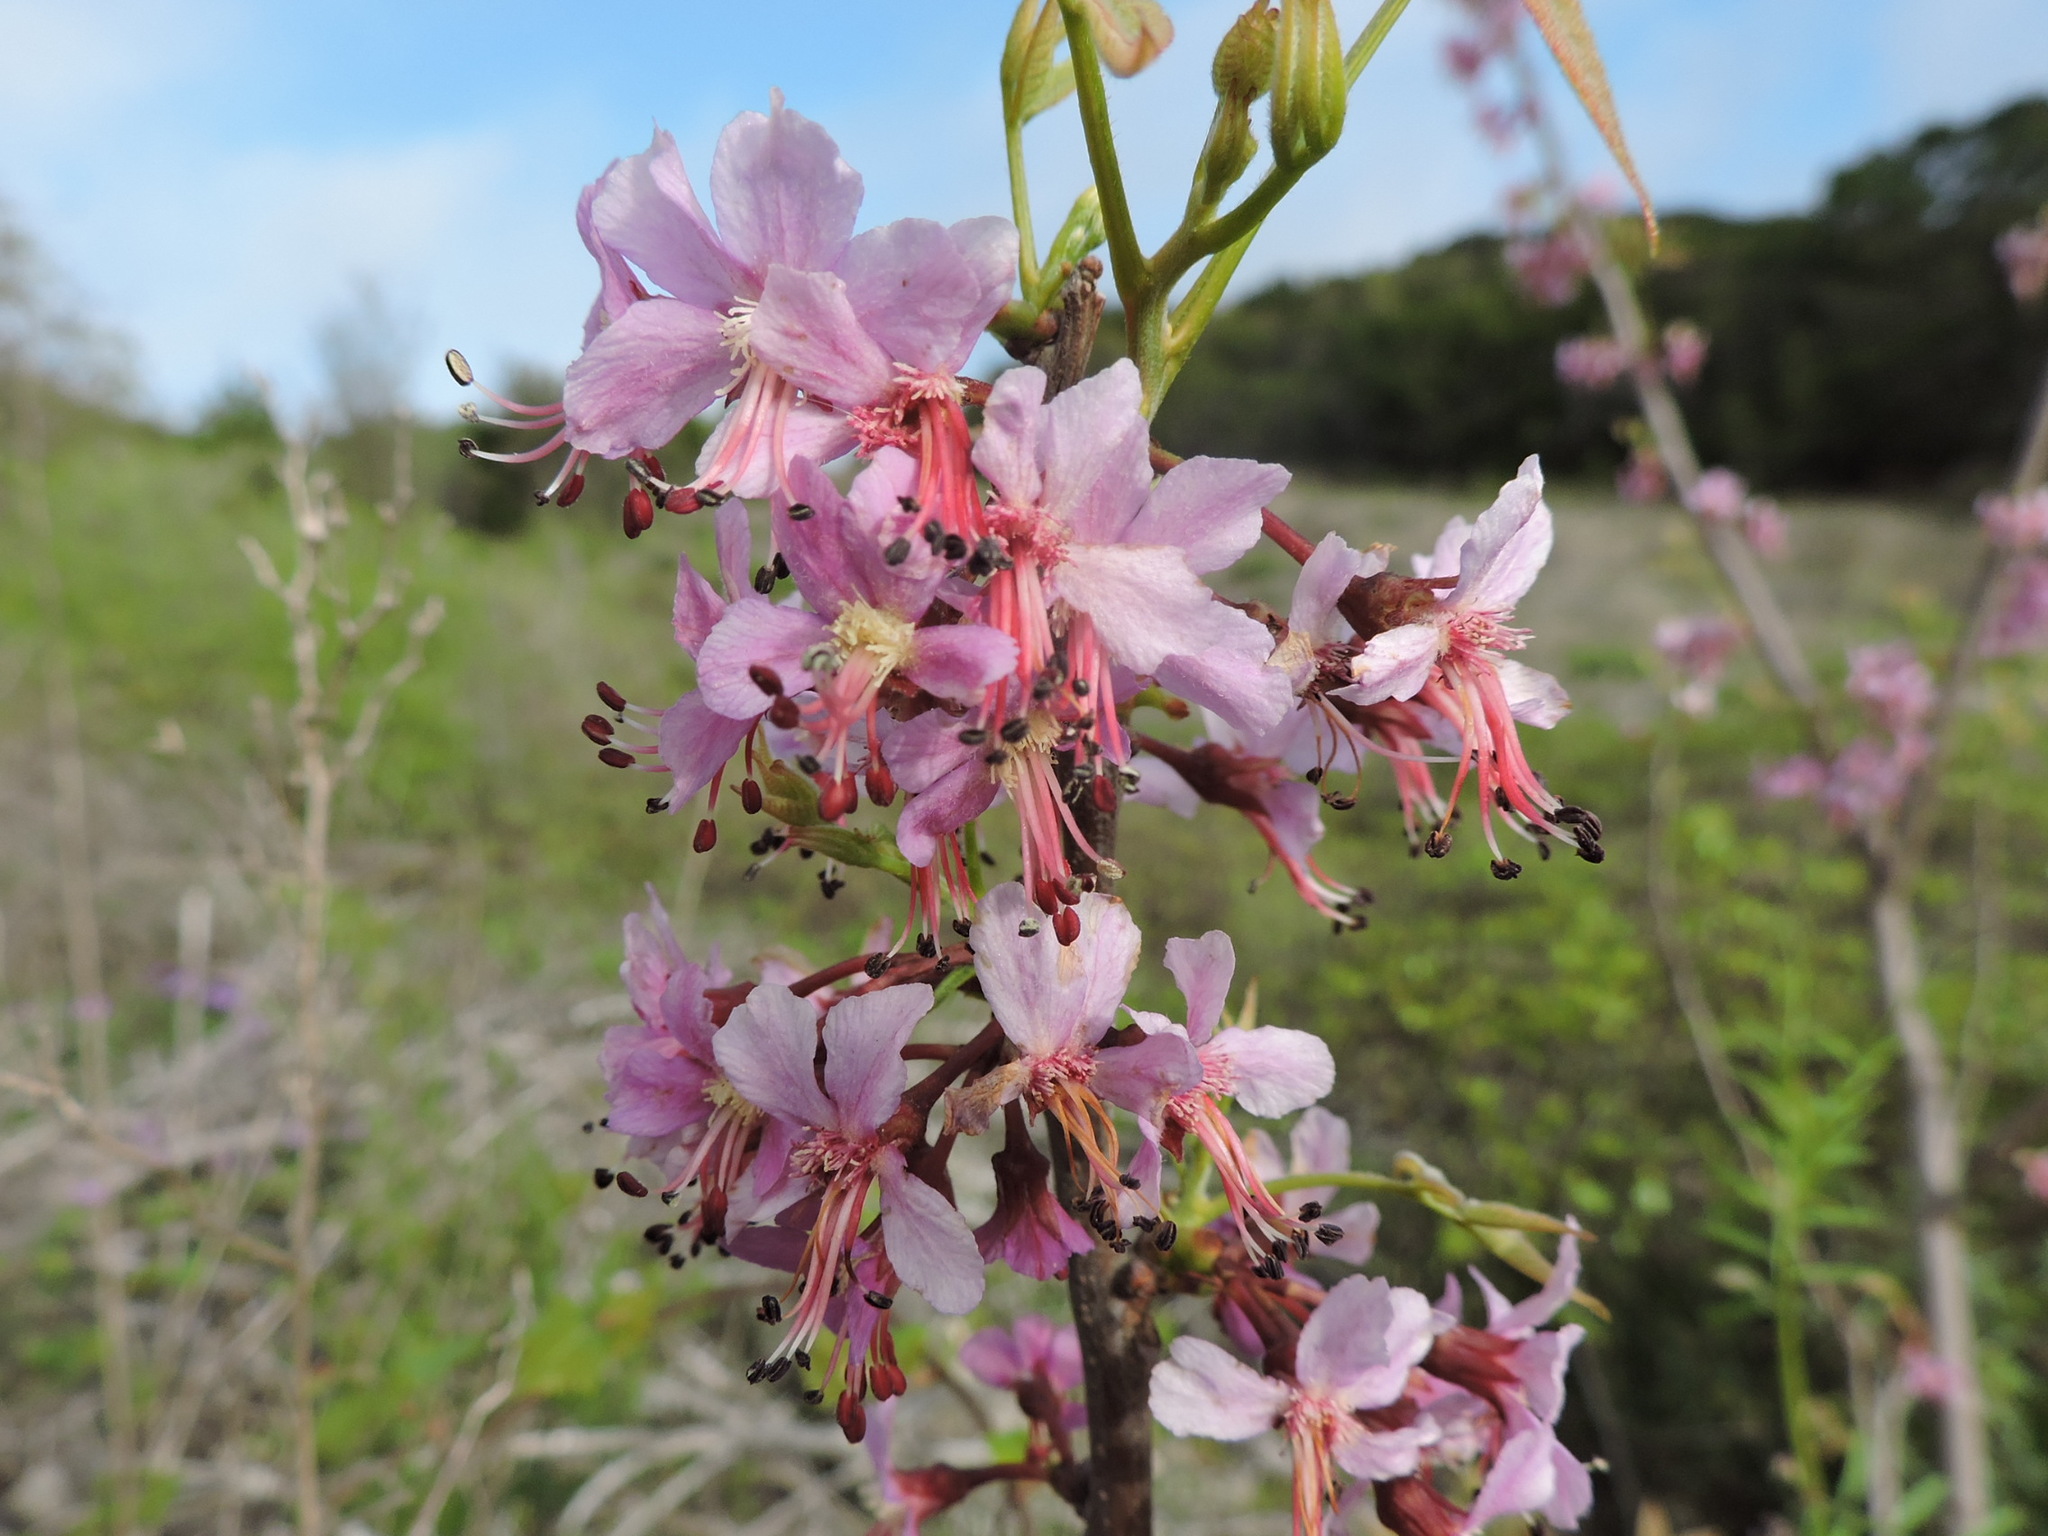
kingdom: Plantae
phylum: Tracheophyta
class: Magnoliopsida
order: Sapindales
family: Sapindaceae
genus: Ungnadia
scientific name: Ungnadia speciosa
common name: Texas-buckeye
